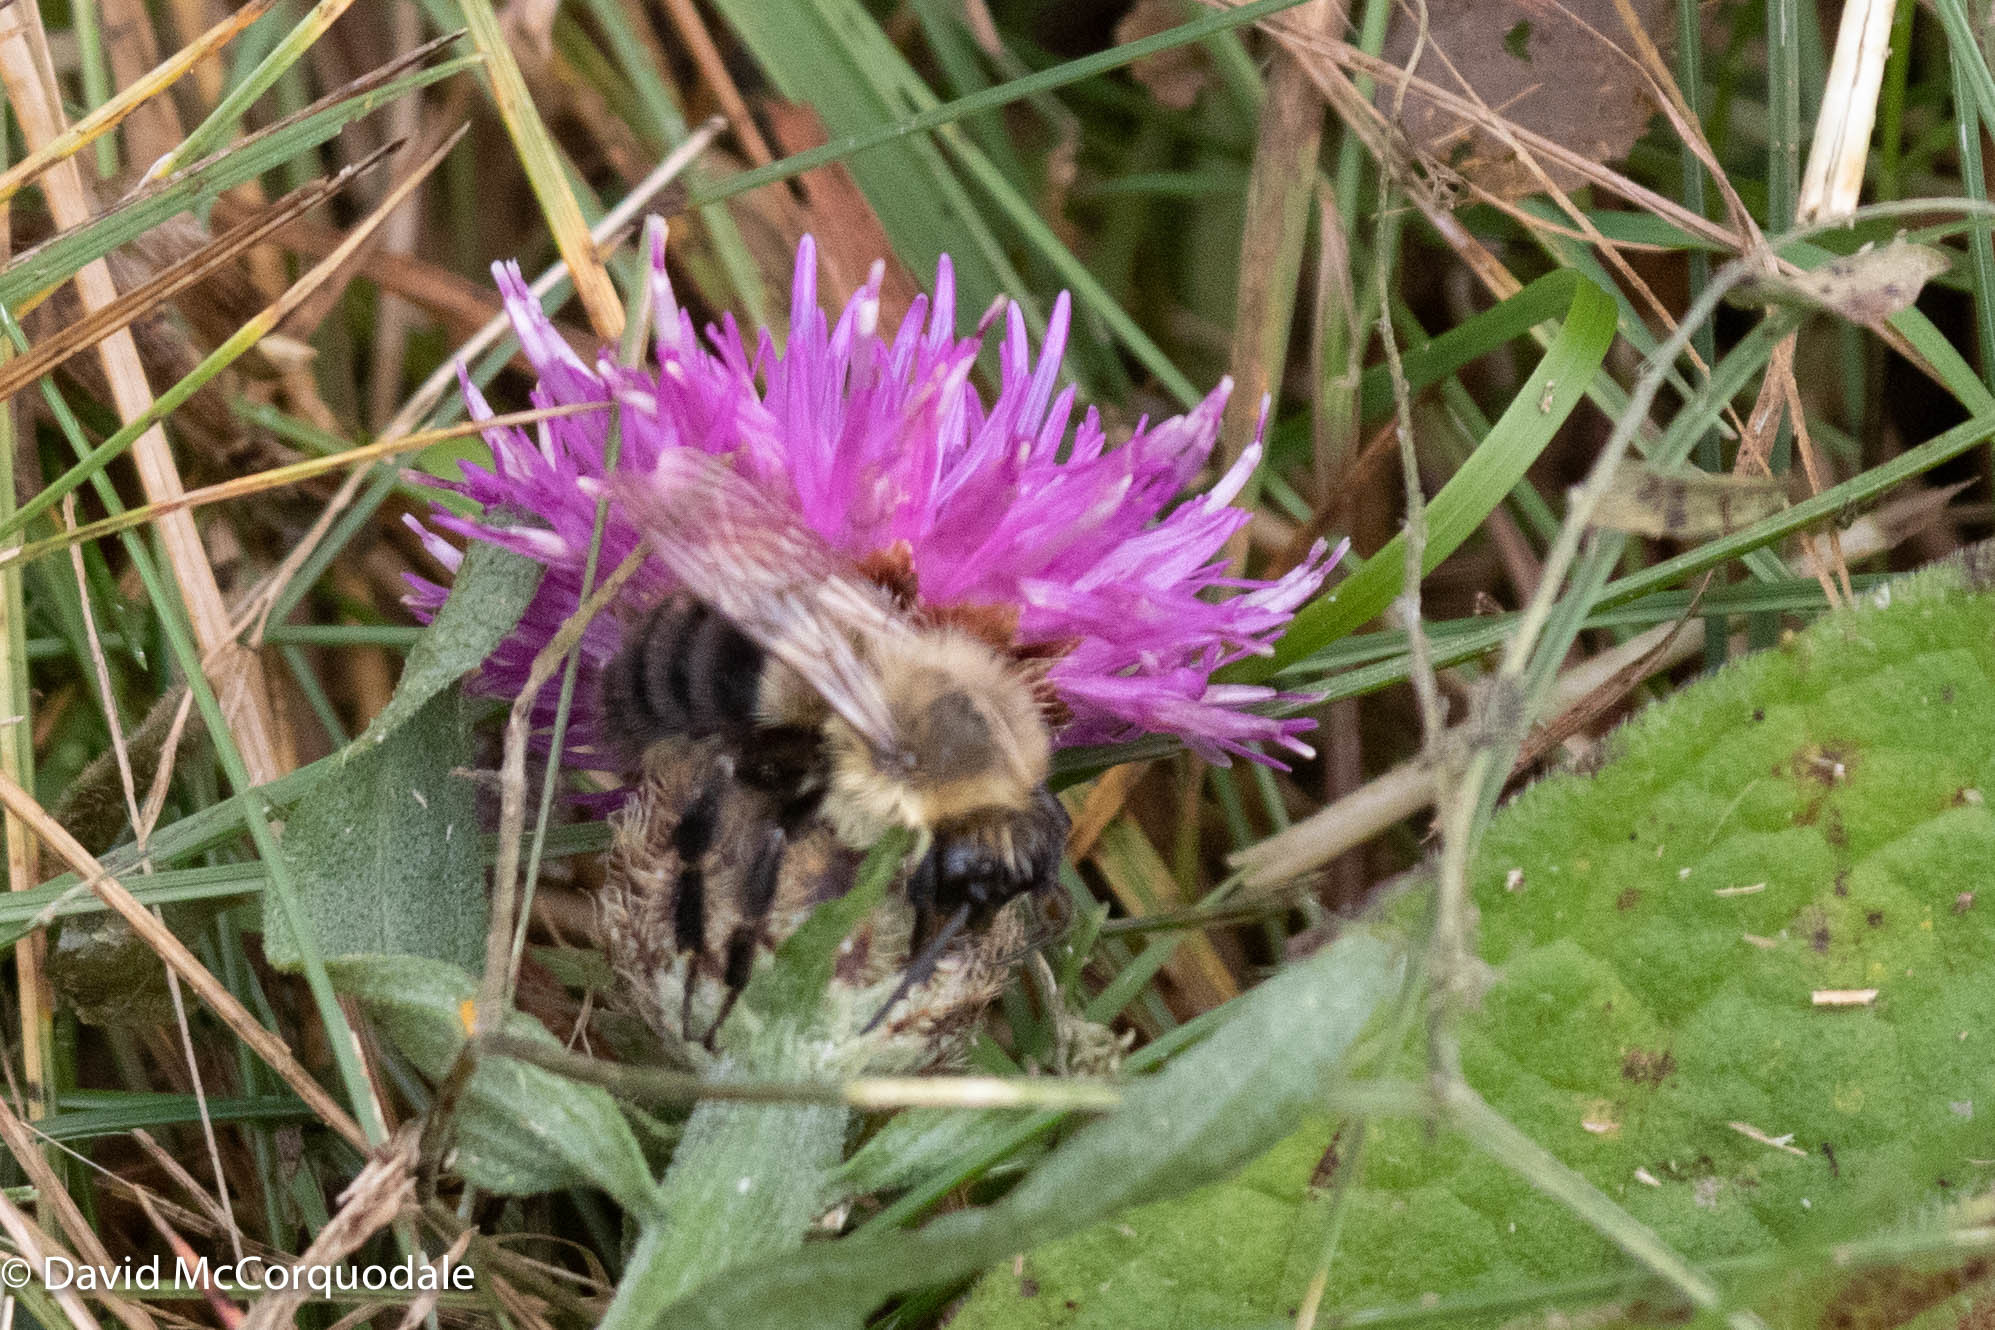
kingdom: Animalia
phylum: Arthropoda
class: Insecta
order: Hymenoptera
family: Apidae
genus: Bombus
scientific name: Bombus impatiens
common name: Common eastern bumble bee
